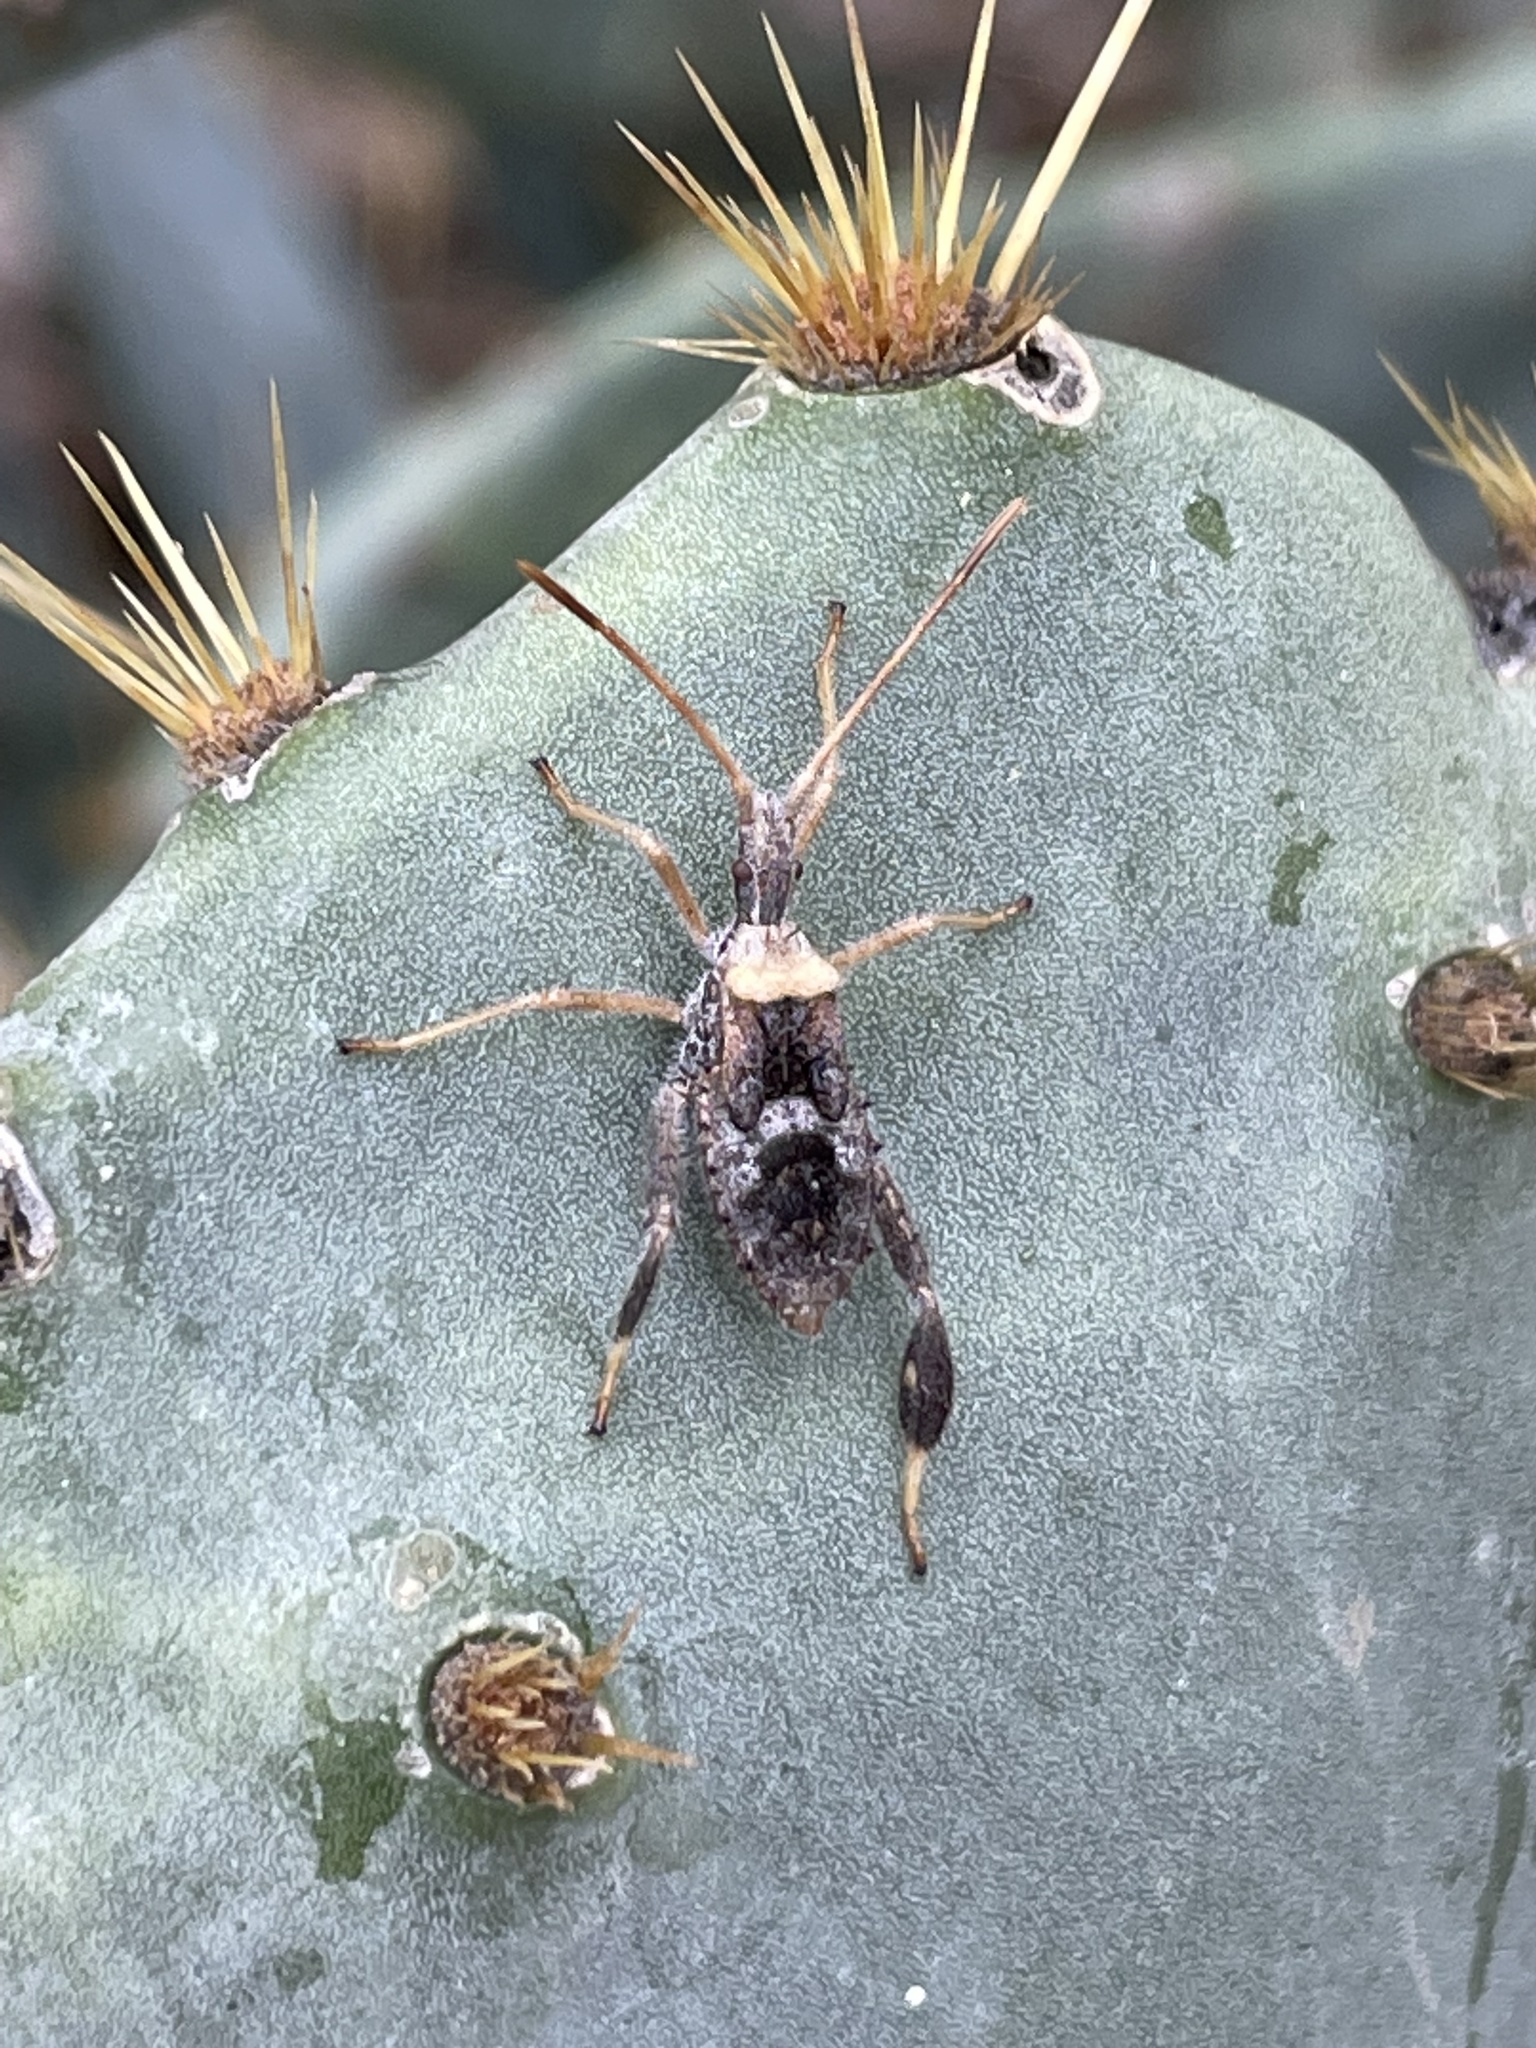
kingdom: Animalia
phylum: Arthropoda
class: Insecta
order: Hemiptera
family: Coreidae
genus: Narnia
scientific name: Narnia femorata
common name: Leaf-footed cactus bug
